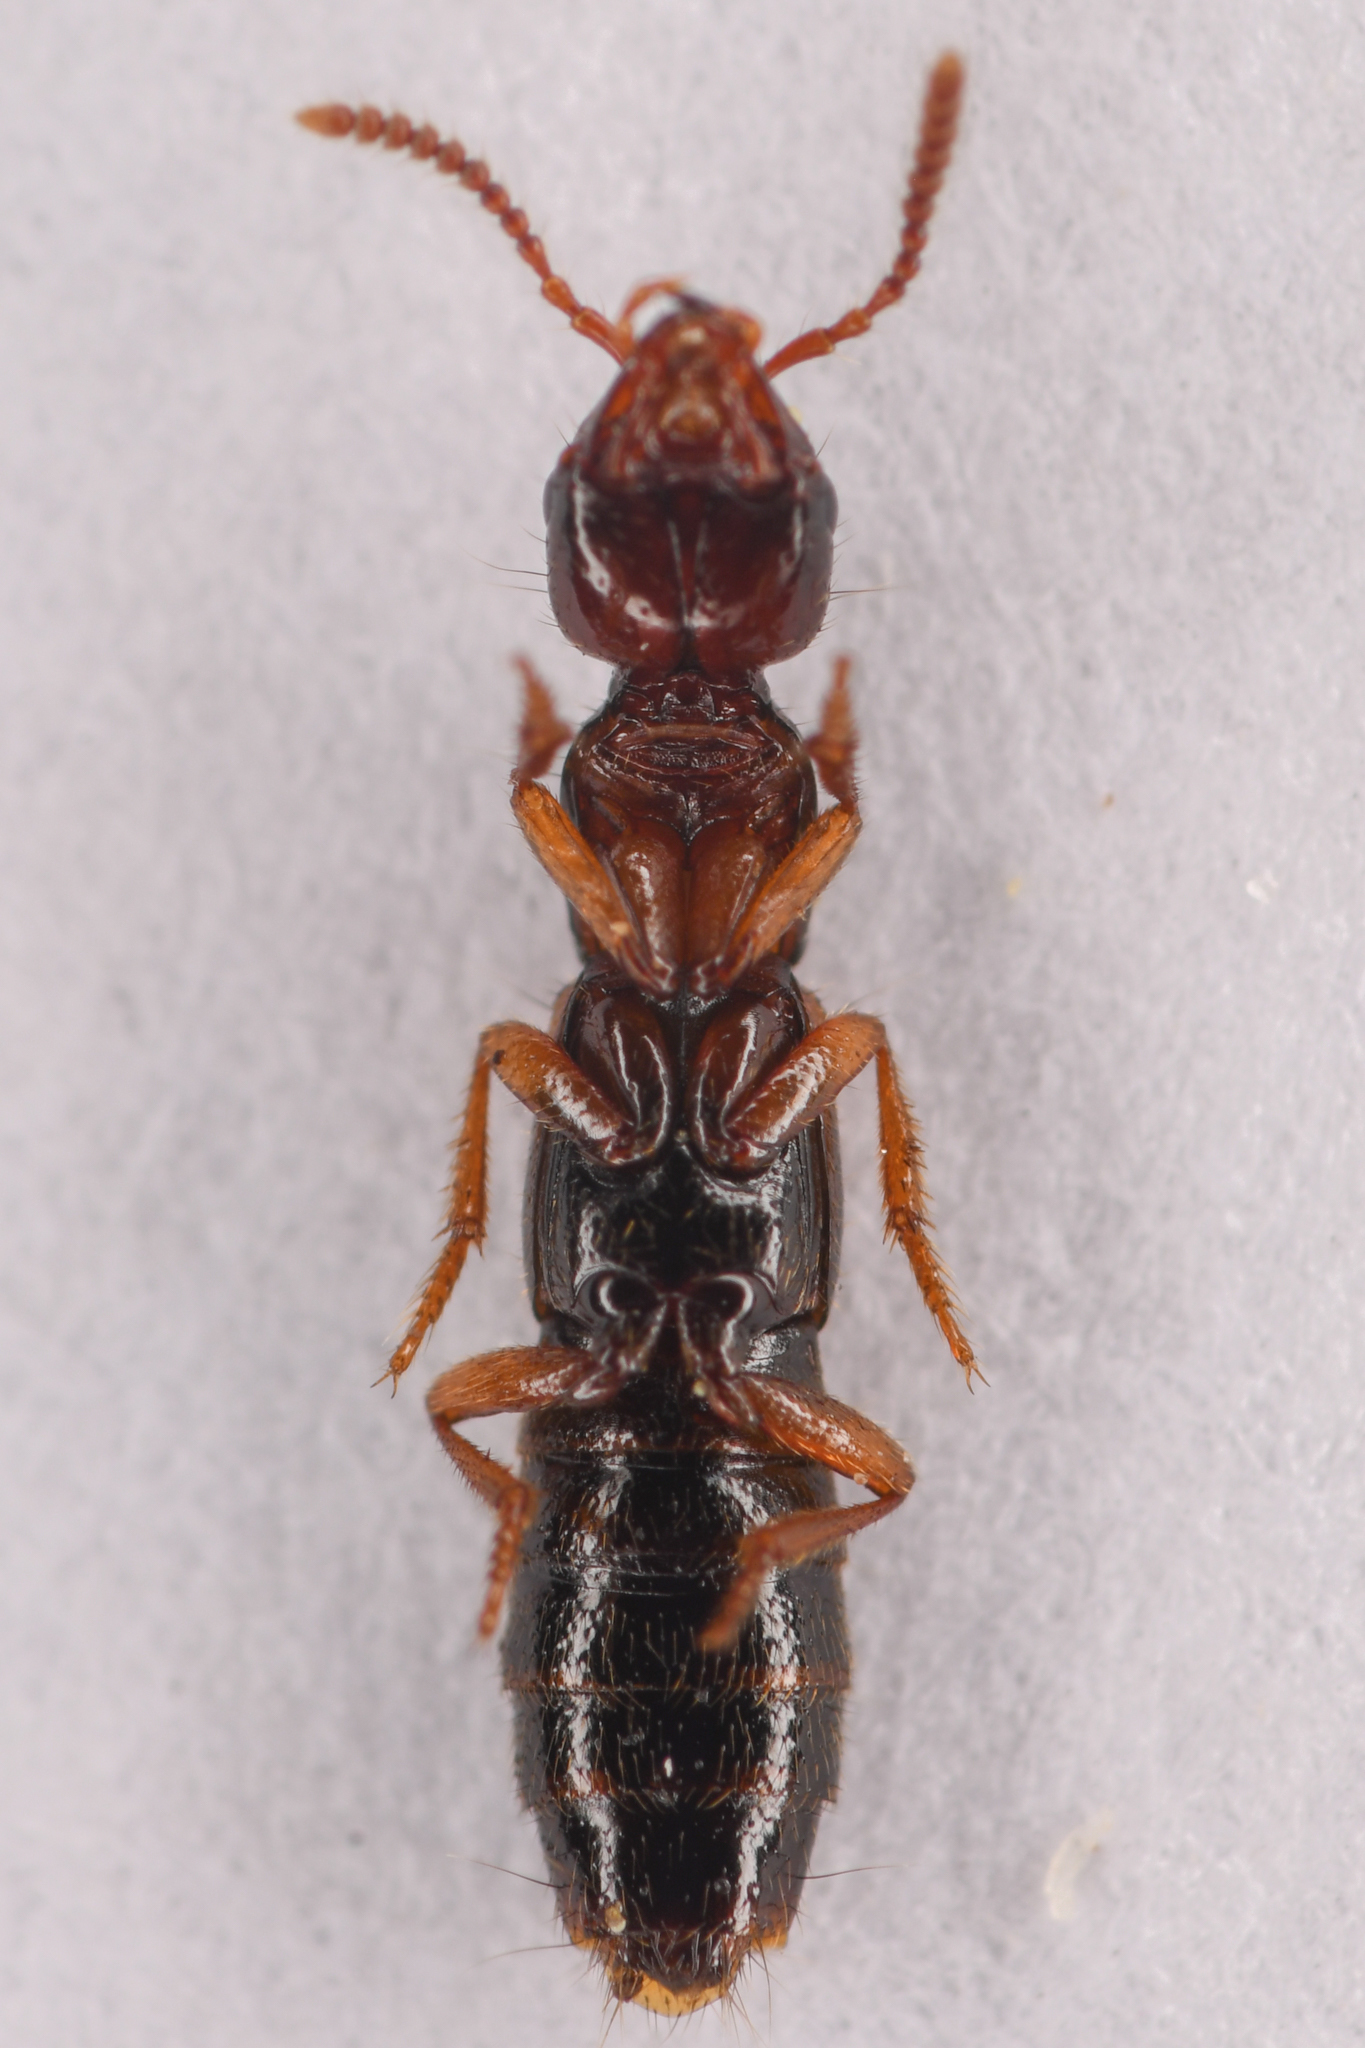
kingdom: Animalia
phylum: Arthropoda
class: Insecta
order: Coleoptera
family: Staphylinidae
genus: Atrecus
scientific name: Atrecus macrocephalus
